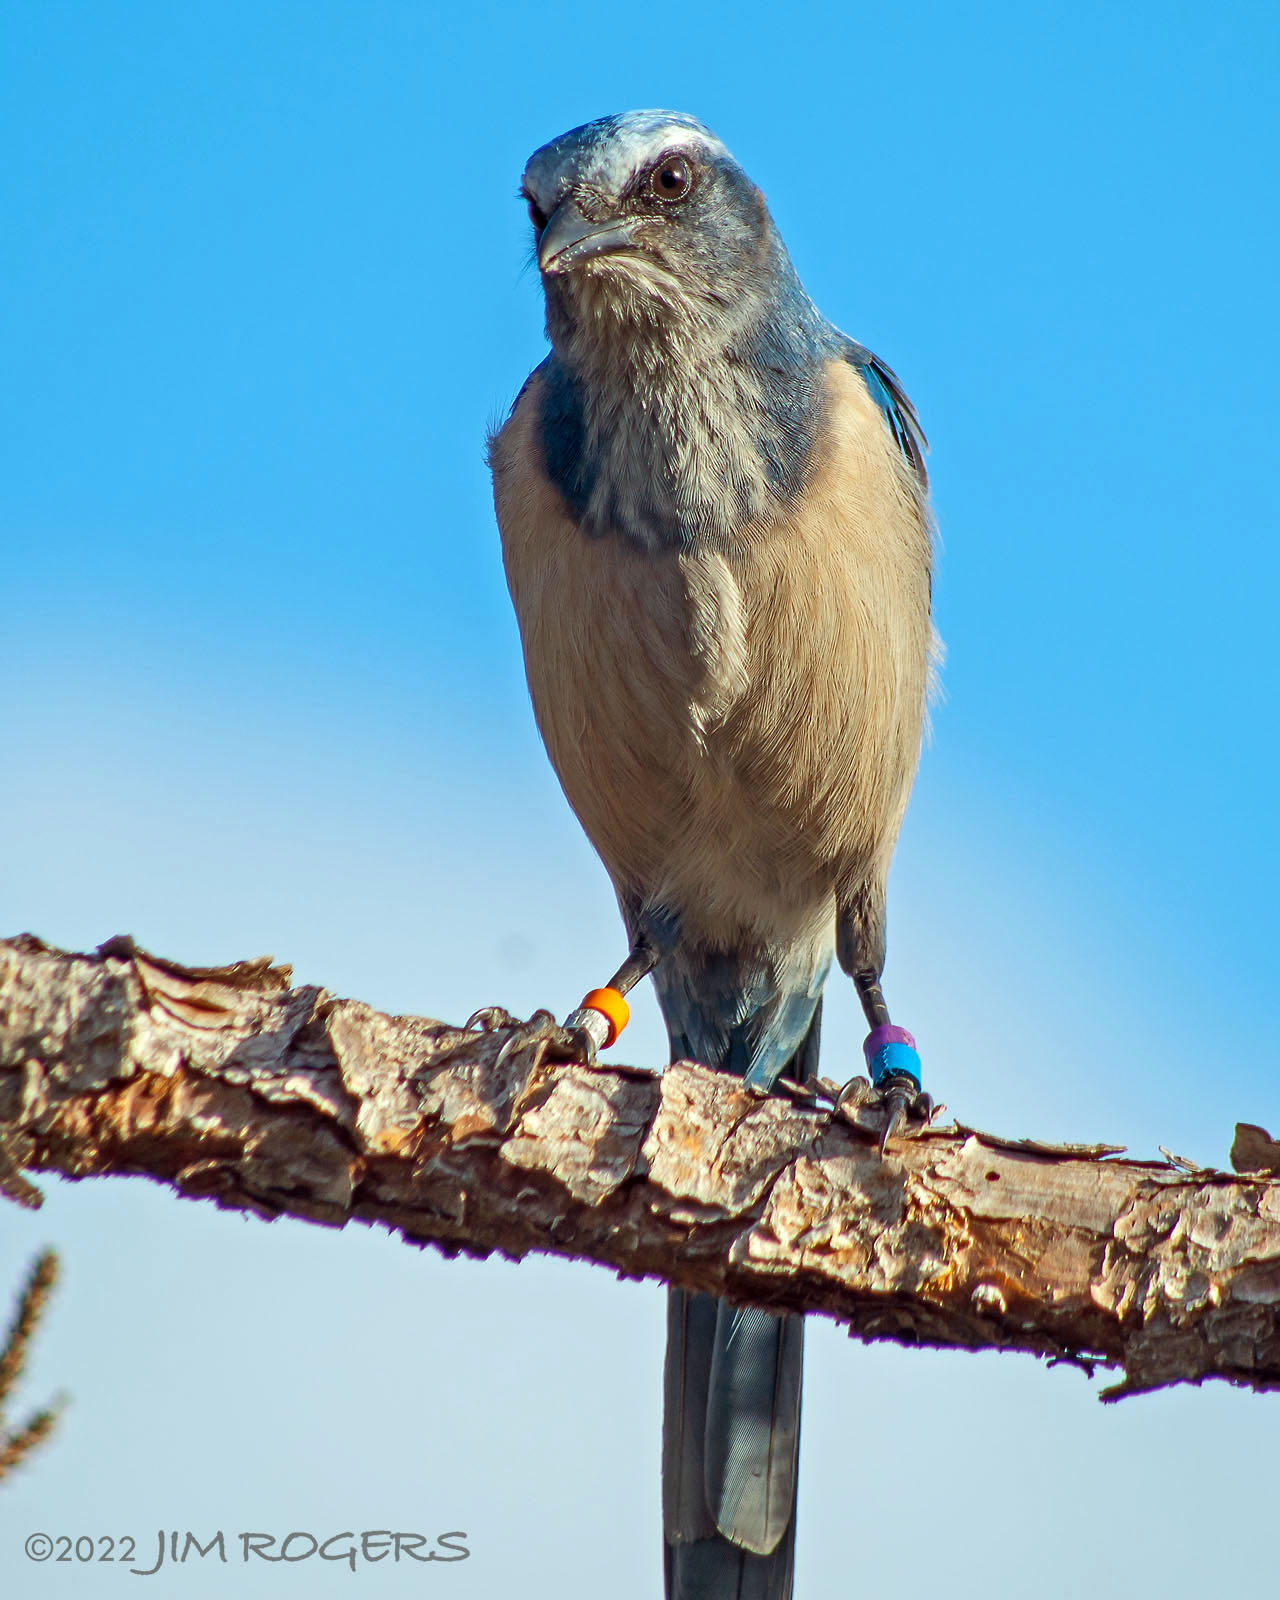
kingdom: Animalia
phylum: Chordata
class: Aves
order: Passeriformes
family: Corvidae
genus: Aphelocoma
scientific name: Aphelocoma coerulescens
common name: Florida scrub jay
